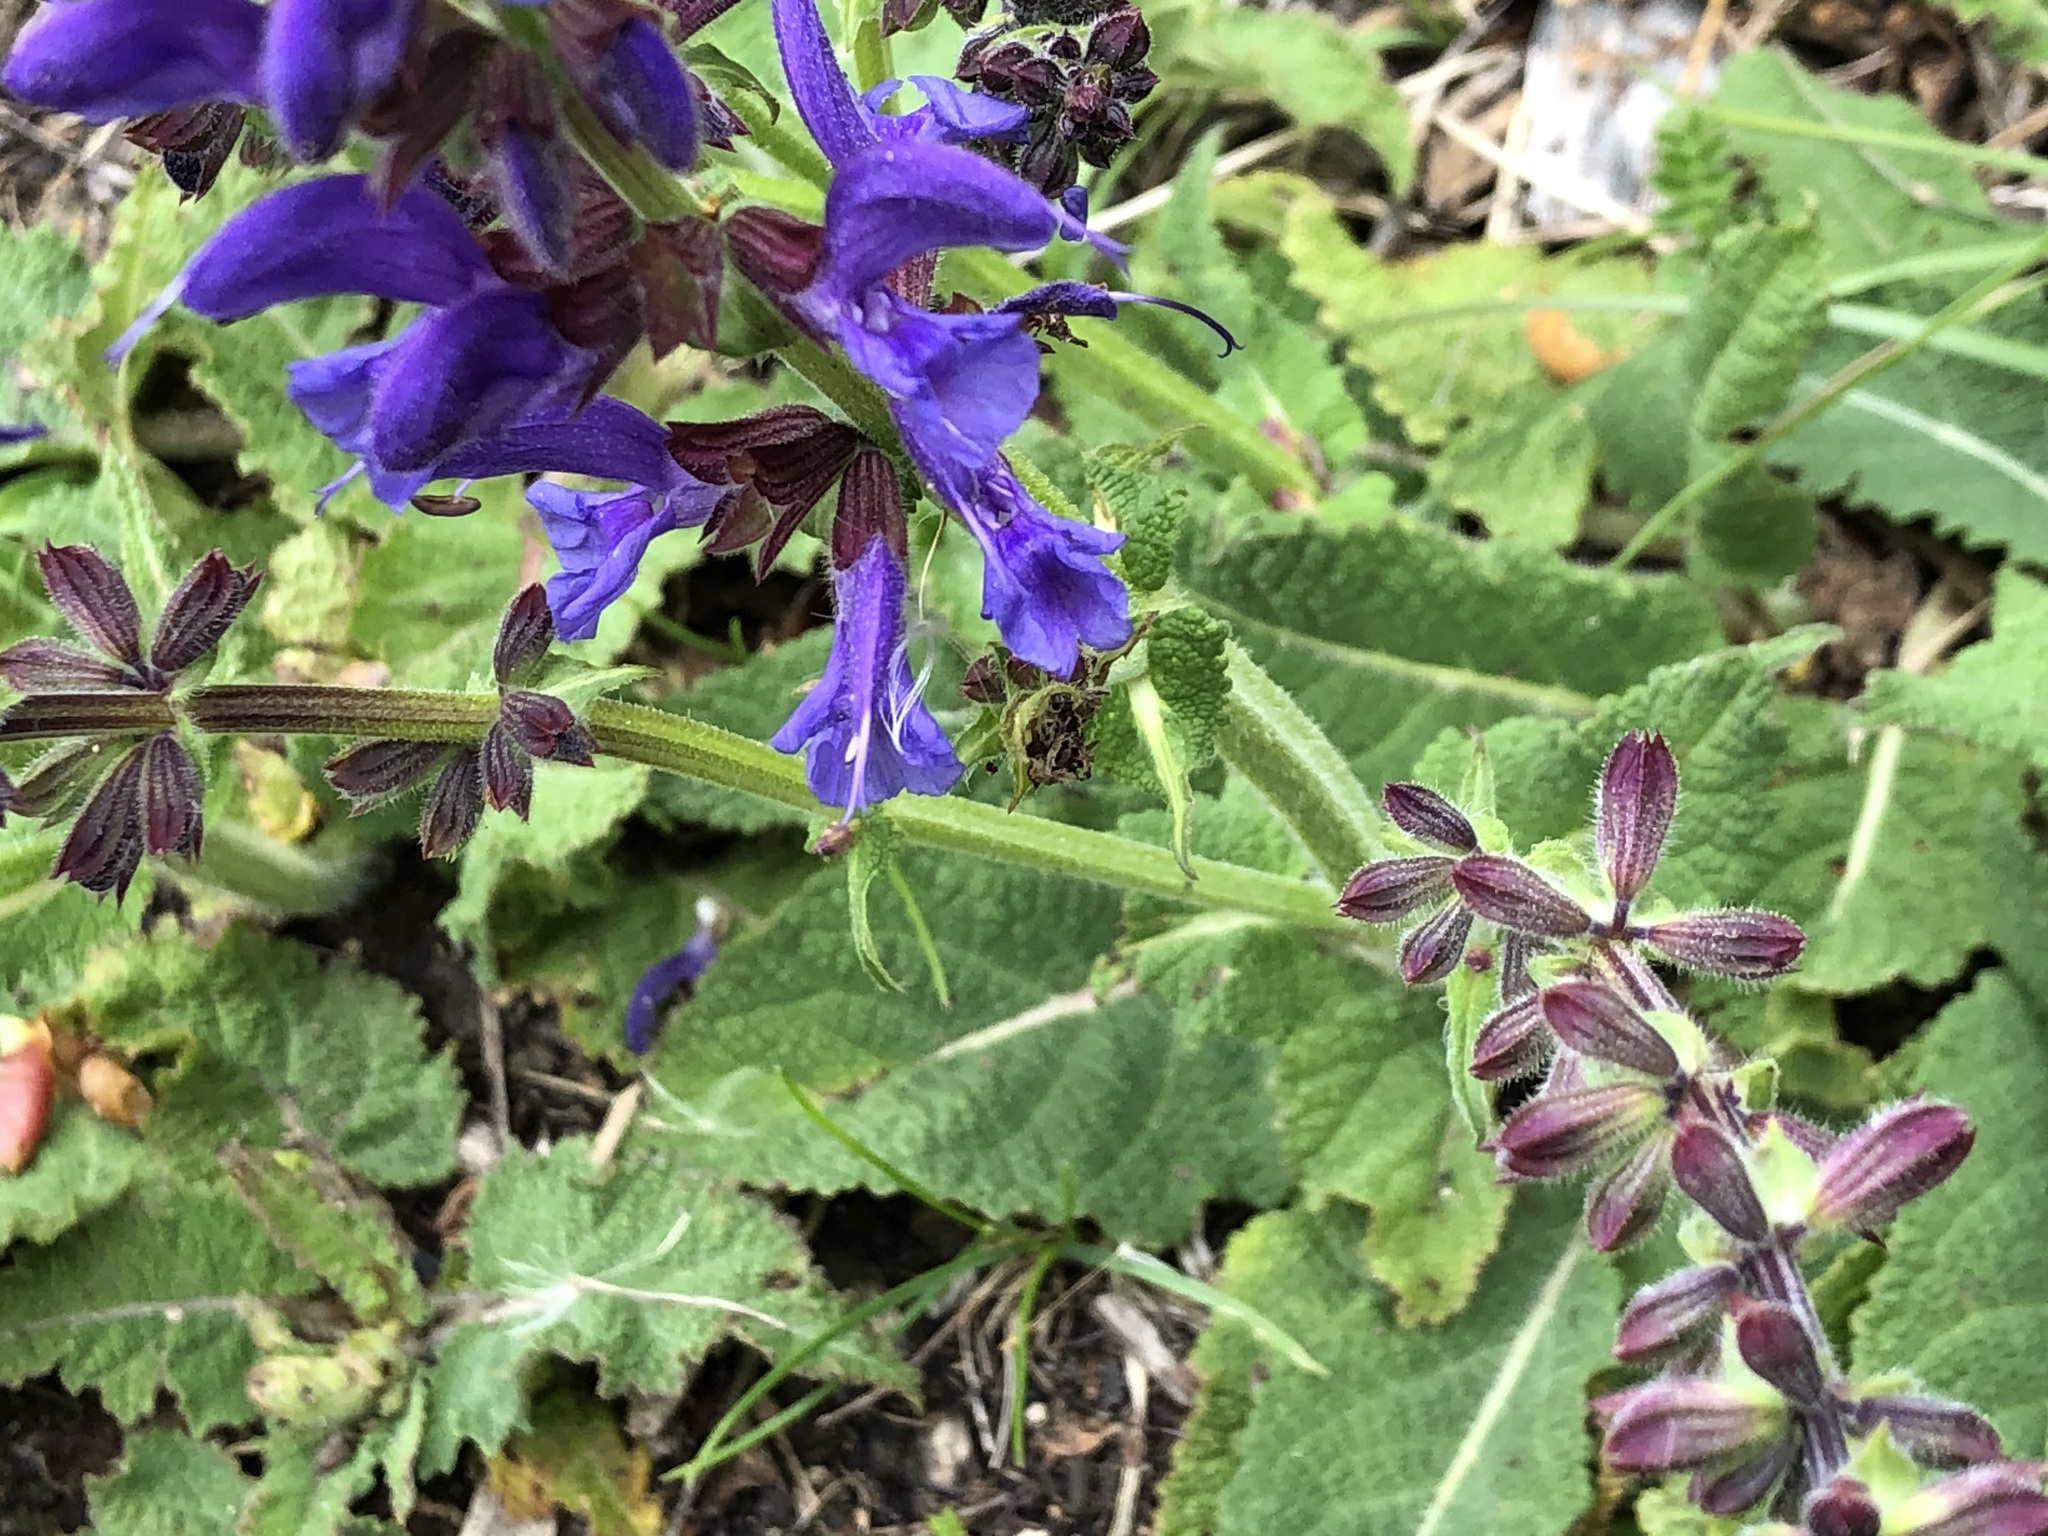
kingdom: Plantae
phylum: Tracheophyta
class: Magnoliopsida
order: Lamiales
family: Lamiaceae
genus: Salvia
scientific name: Salvia pratensis
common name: Meadow sage
